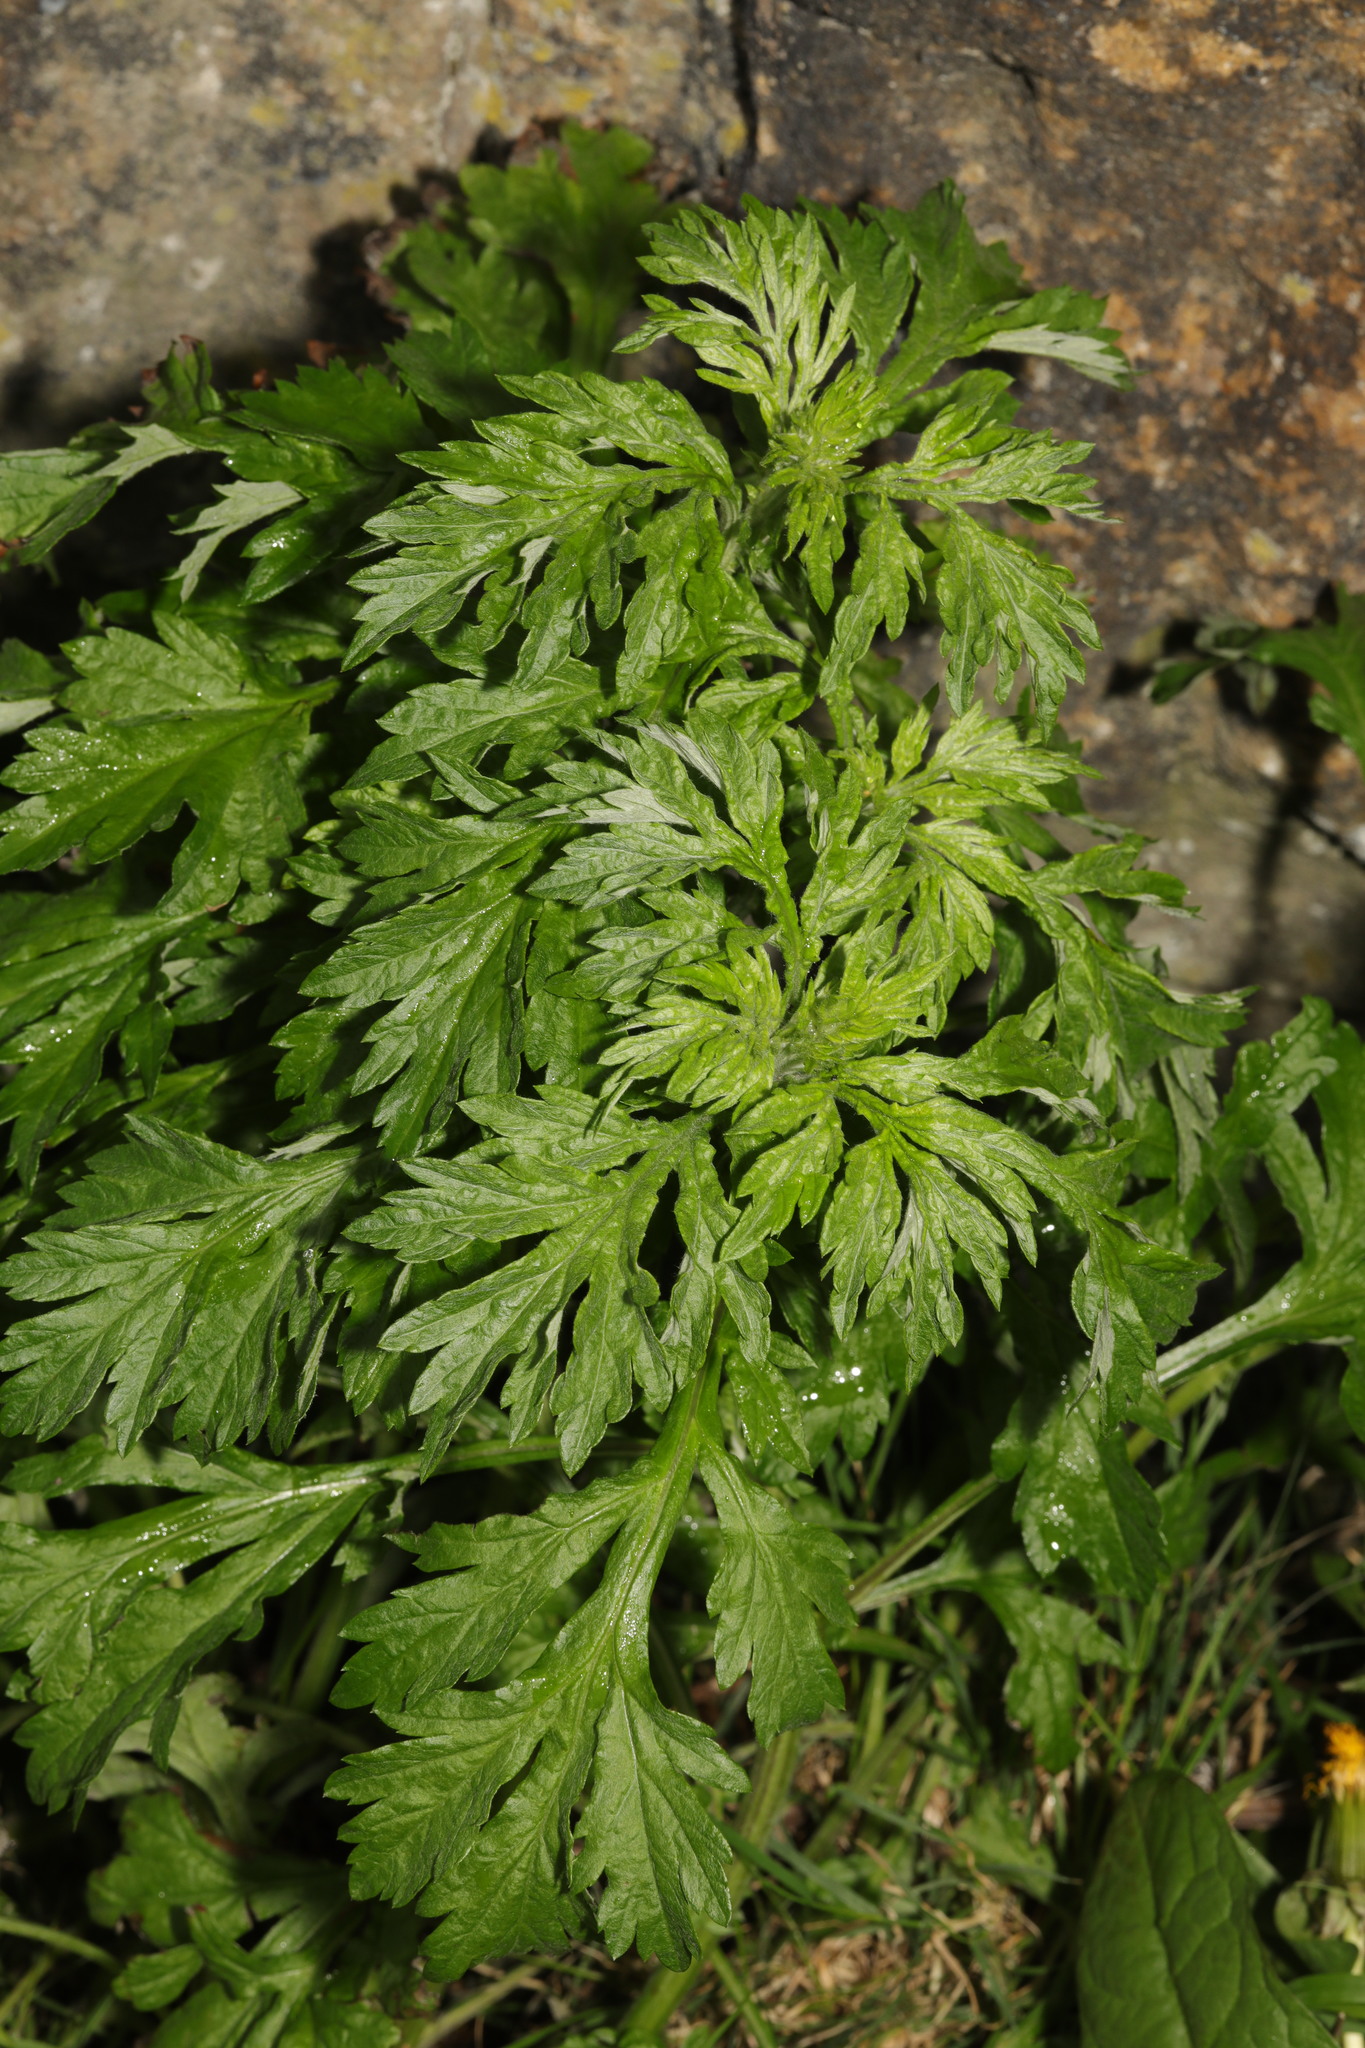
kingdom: Plantae
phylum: Tracheophyta
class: Magnoliopsida
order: Asterales
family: Asteraceae
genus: Artemisia
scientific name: Artemisia vulgaris
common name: Mugwort
